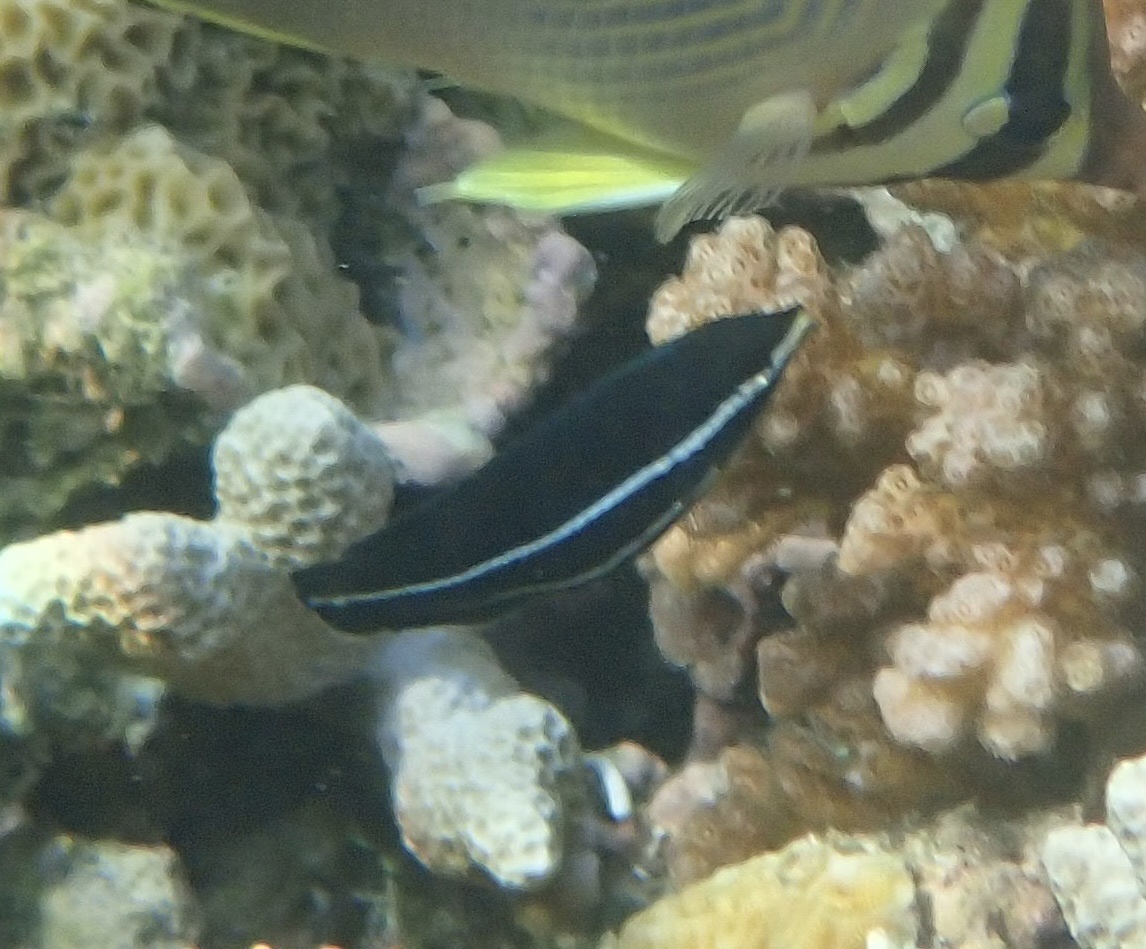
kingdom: Animalia
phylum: Chordata
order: Perciformes
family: Labridae
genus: Labrichthys
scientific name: Labrichthys unilineatus
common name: Onelined wrasse
